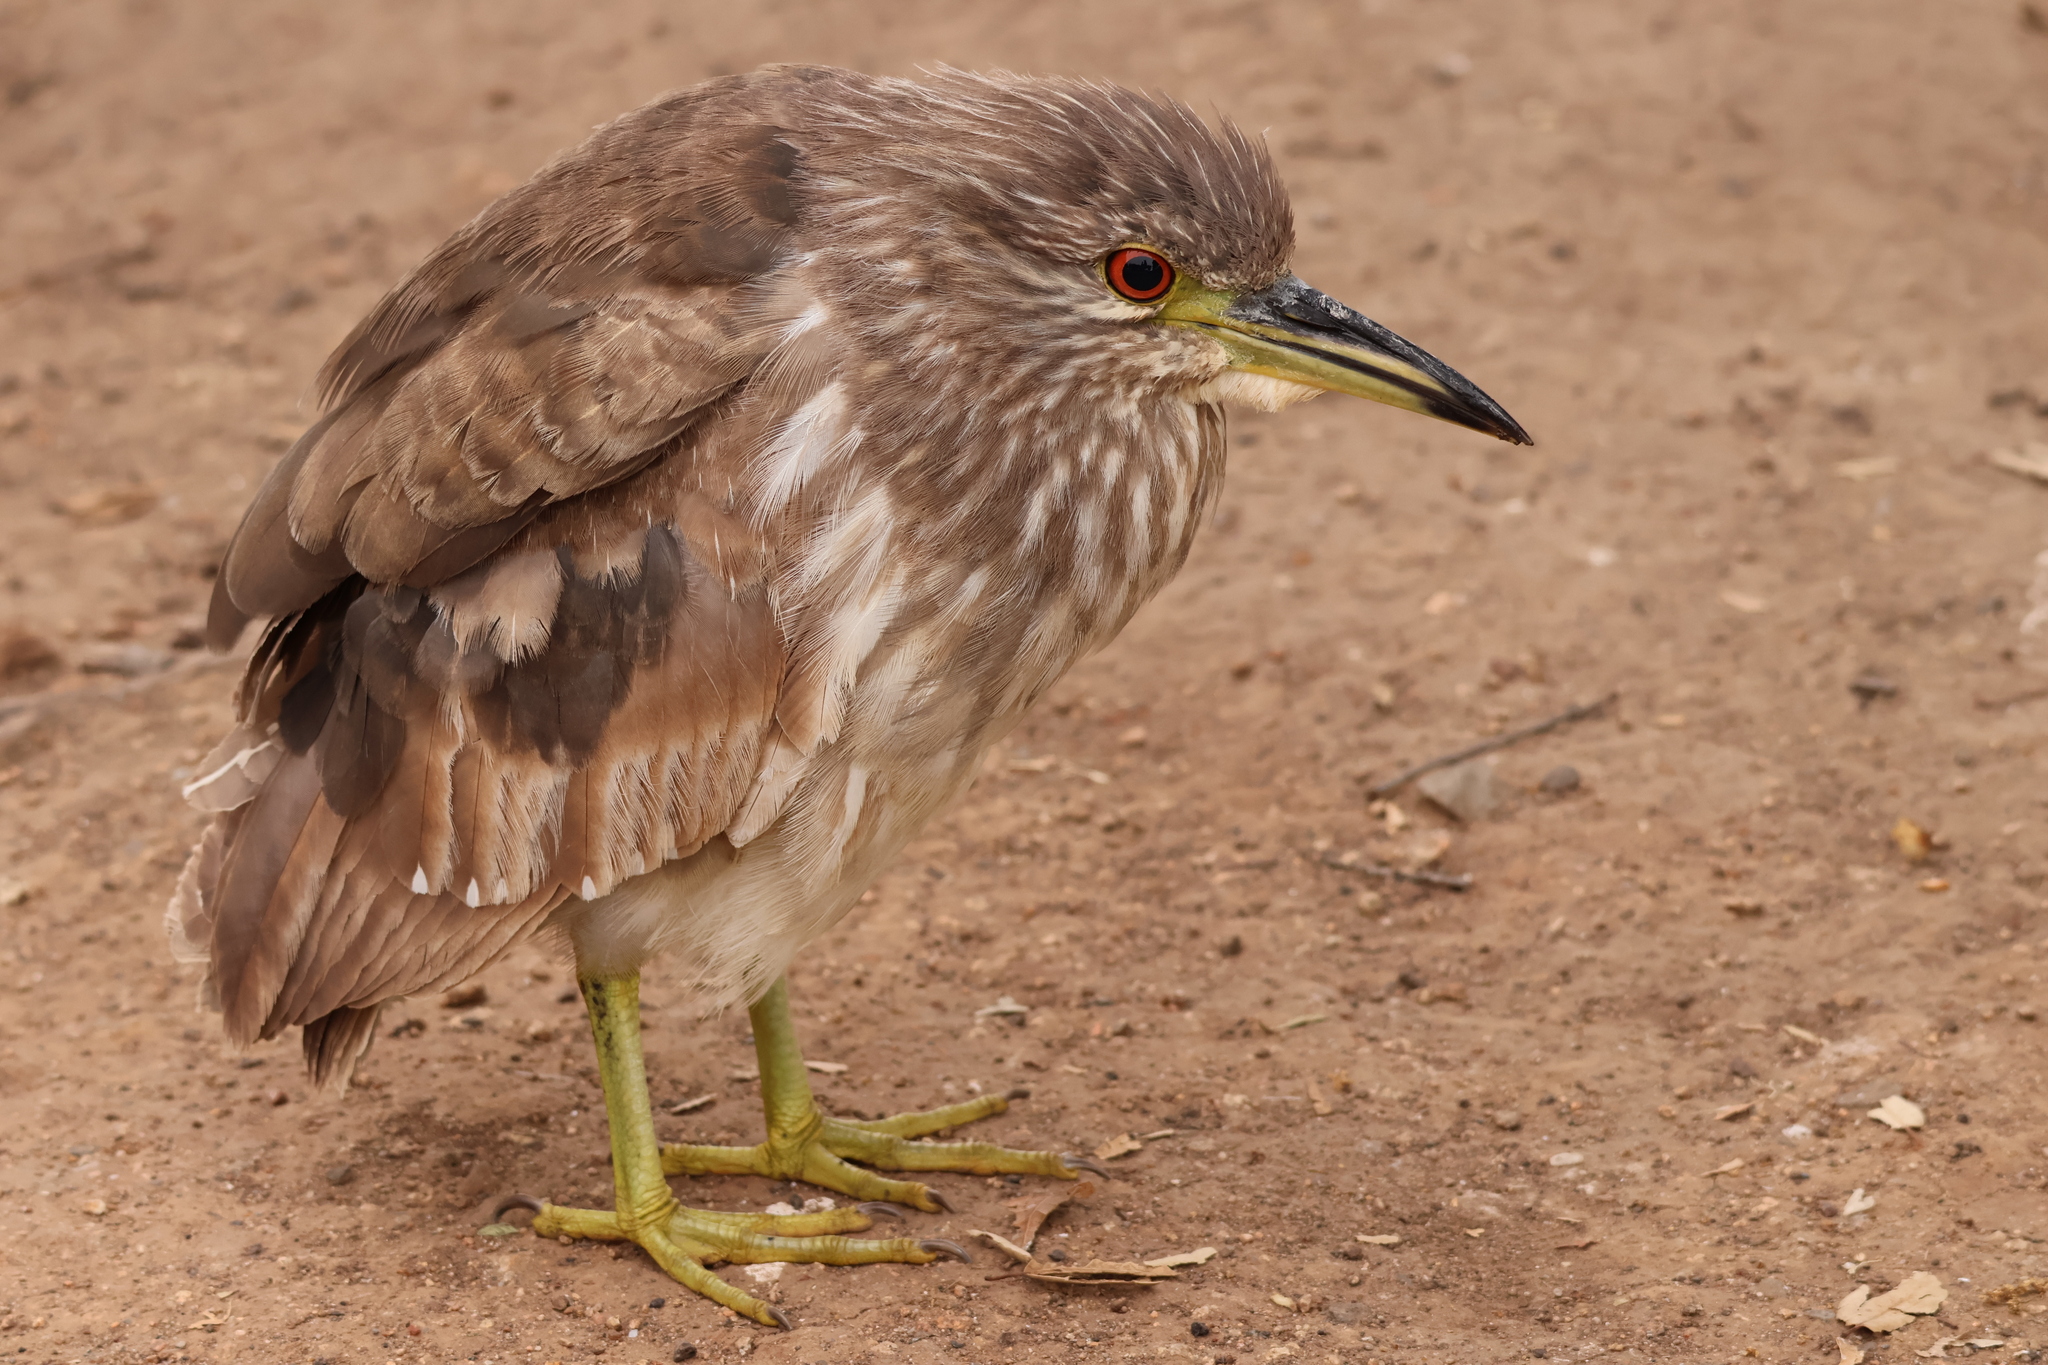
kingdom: Animalia
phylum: Chordata
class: Aves
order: Pelecaniformes
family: Ardeidae
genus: Nycticorax
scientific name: Nycticorax nycticorax
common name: Black-crowned night heron
